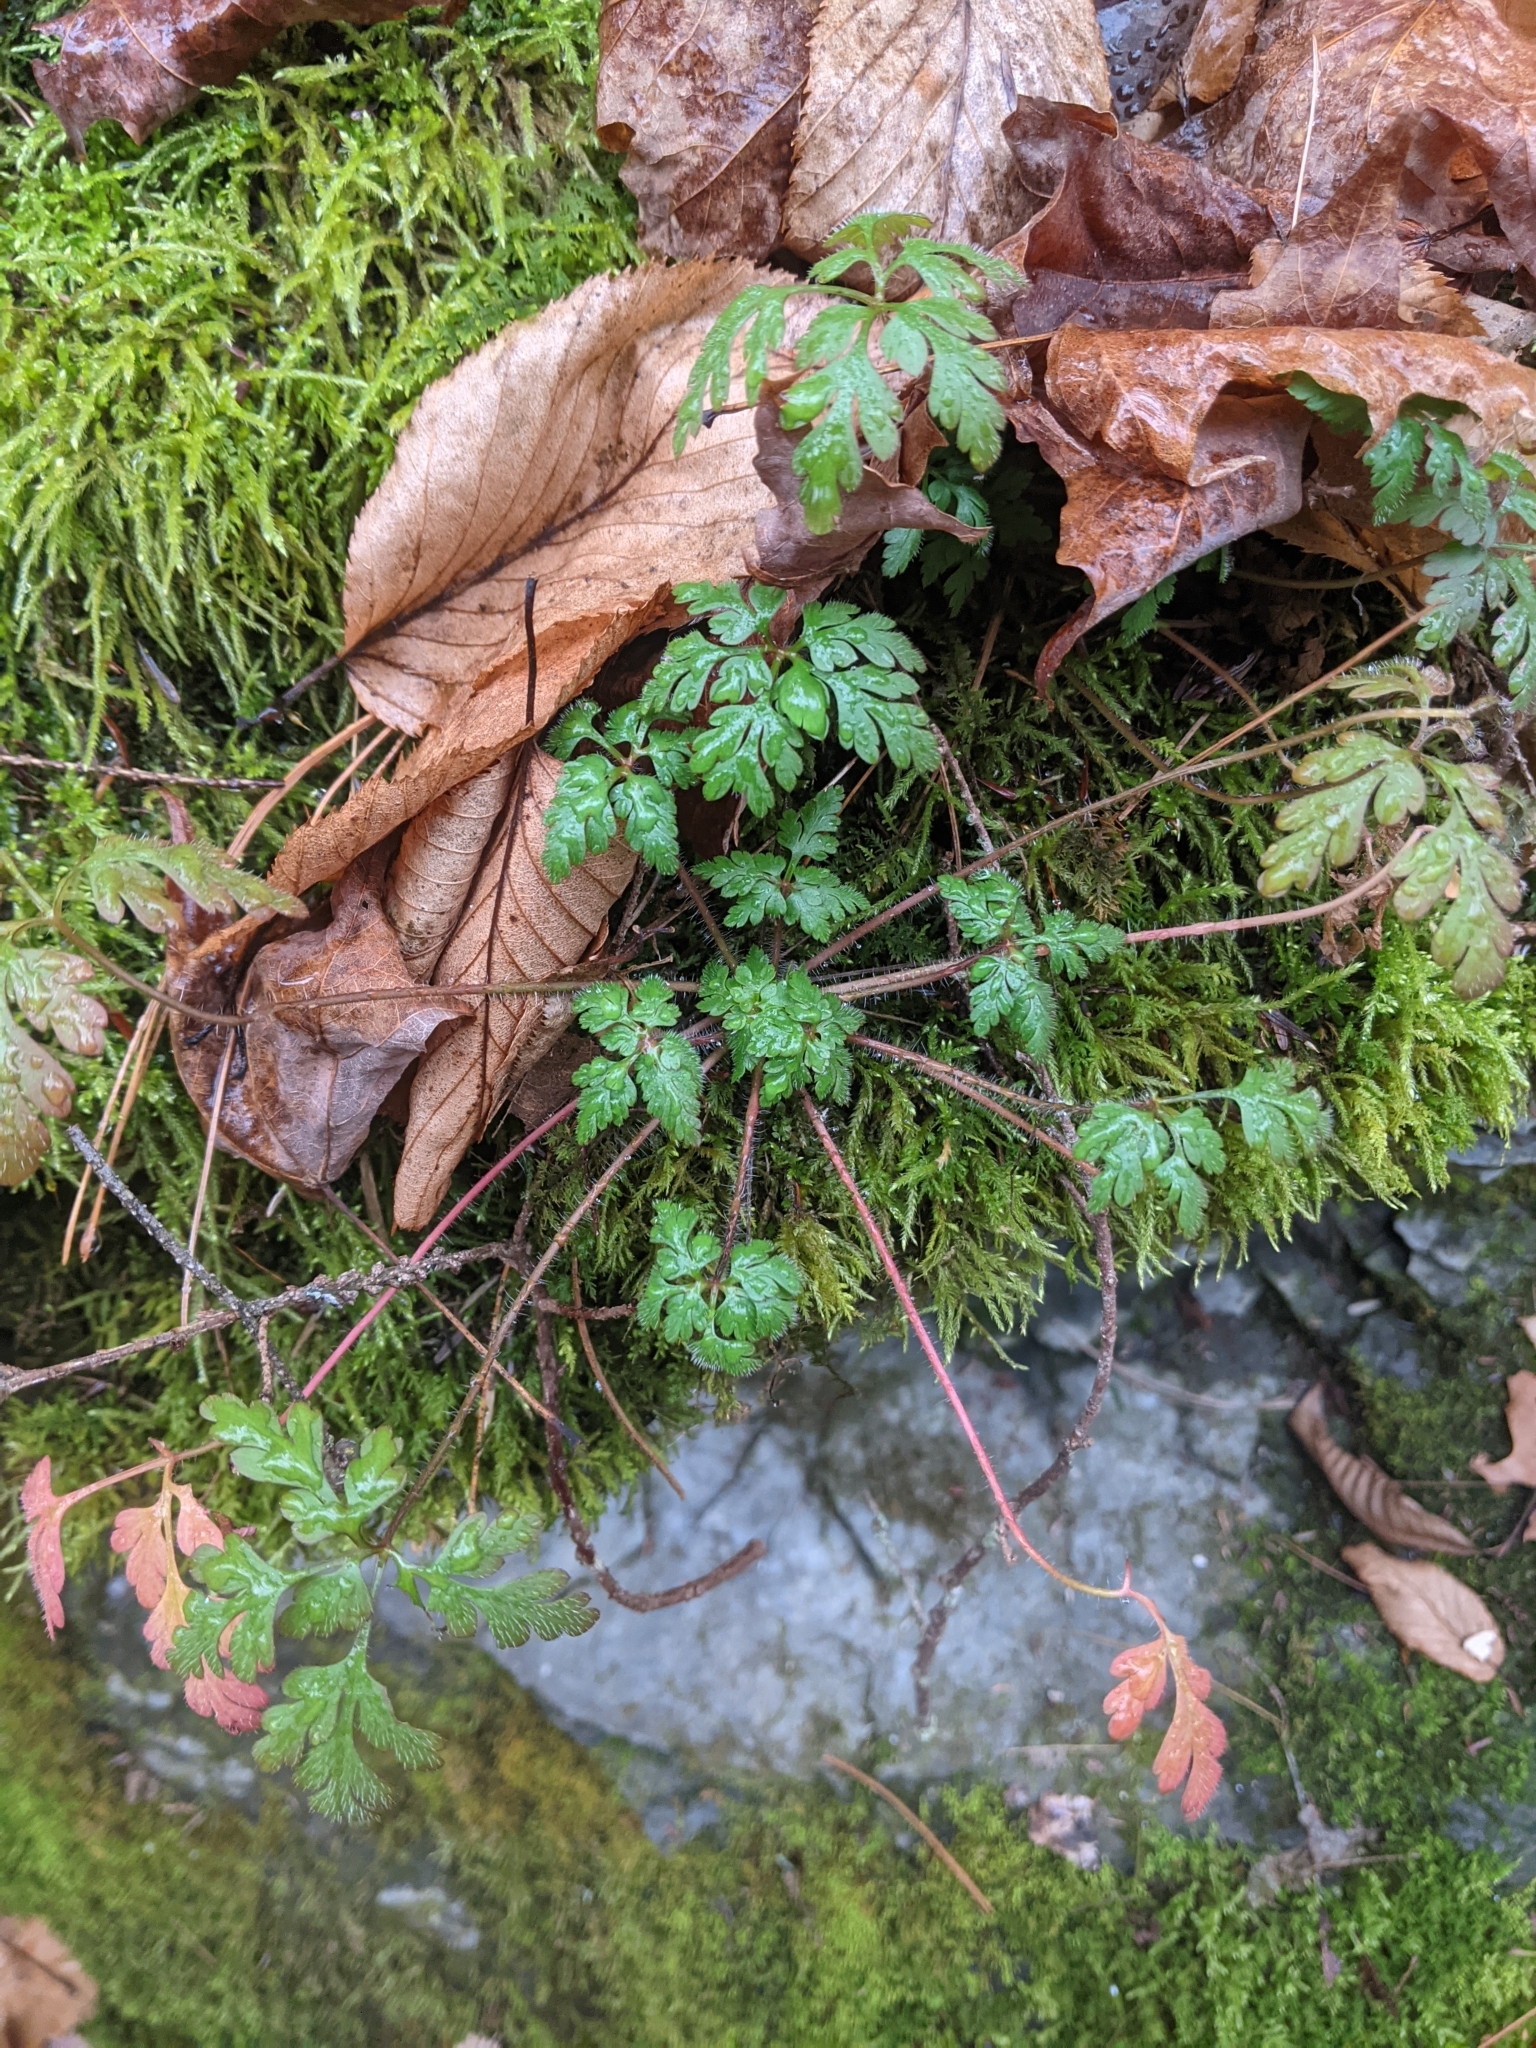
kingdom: Plantae
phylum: Tracheophyta
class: Magnoliopsida
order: Geraniales
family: Geraniaceae
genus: Geranium
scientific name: Geranium robertianum
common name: Herb-robert
